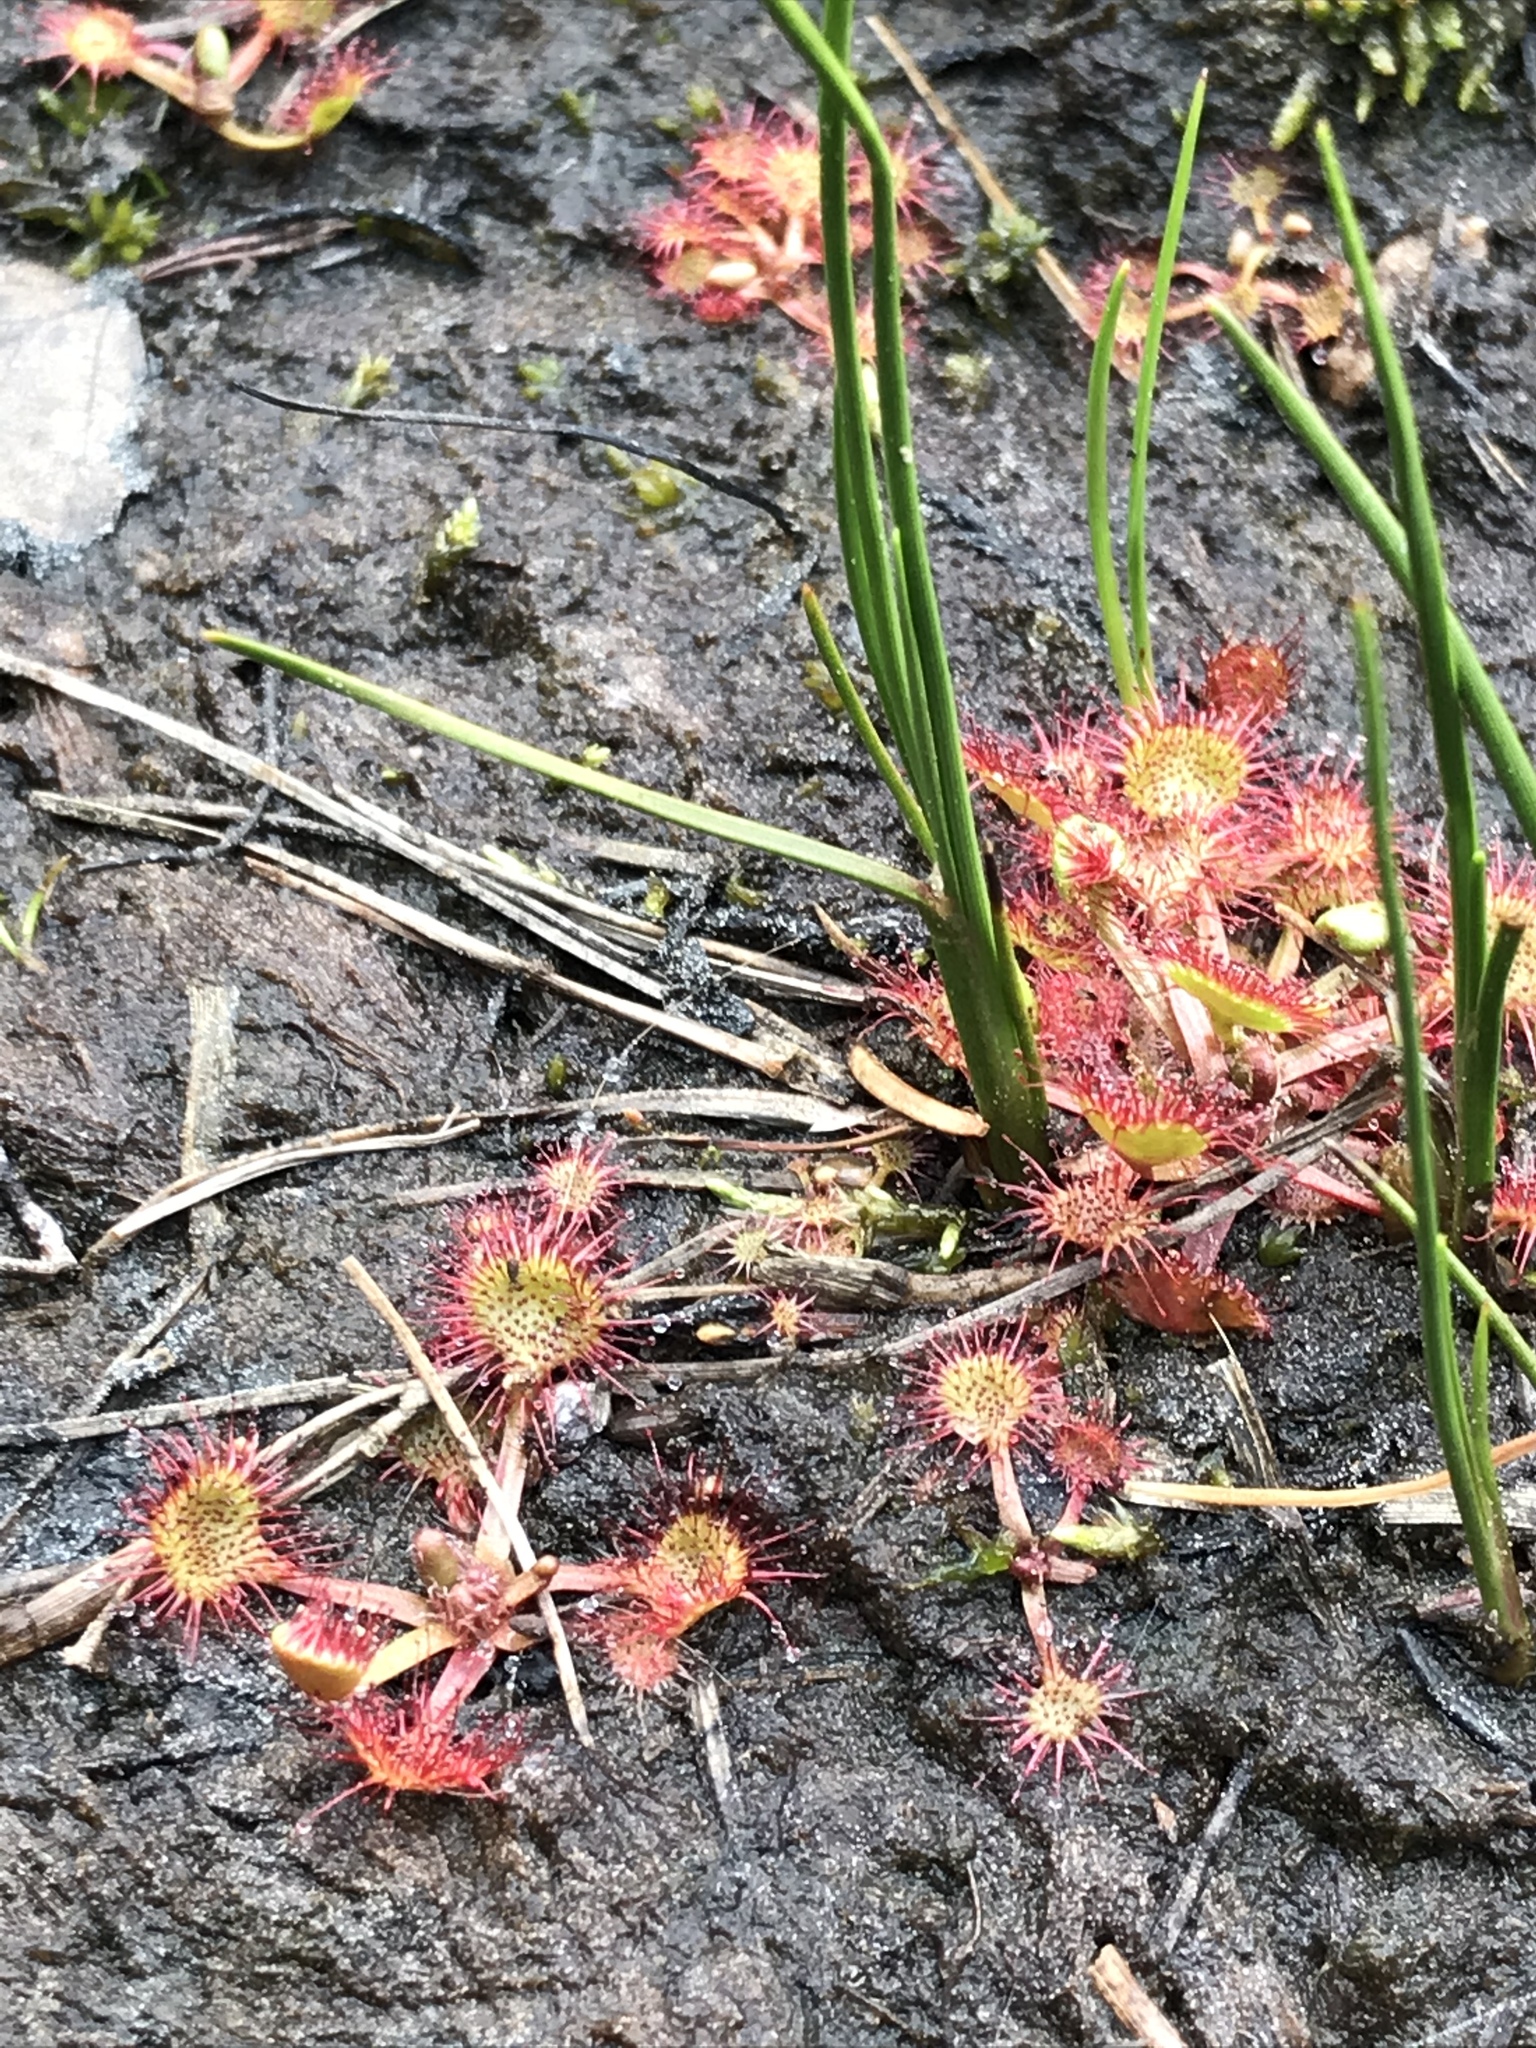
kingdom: Plantae
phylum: Tracheophyta
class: Magnoliopsida
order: Caryophyllales
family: Droseraceae
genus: Drosera
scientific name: Drosera rotundifolia
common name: Round-leaved sundew
